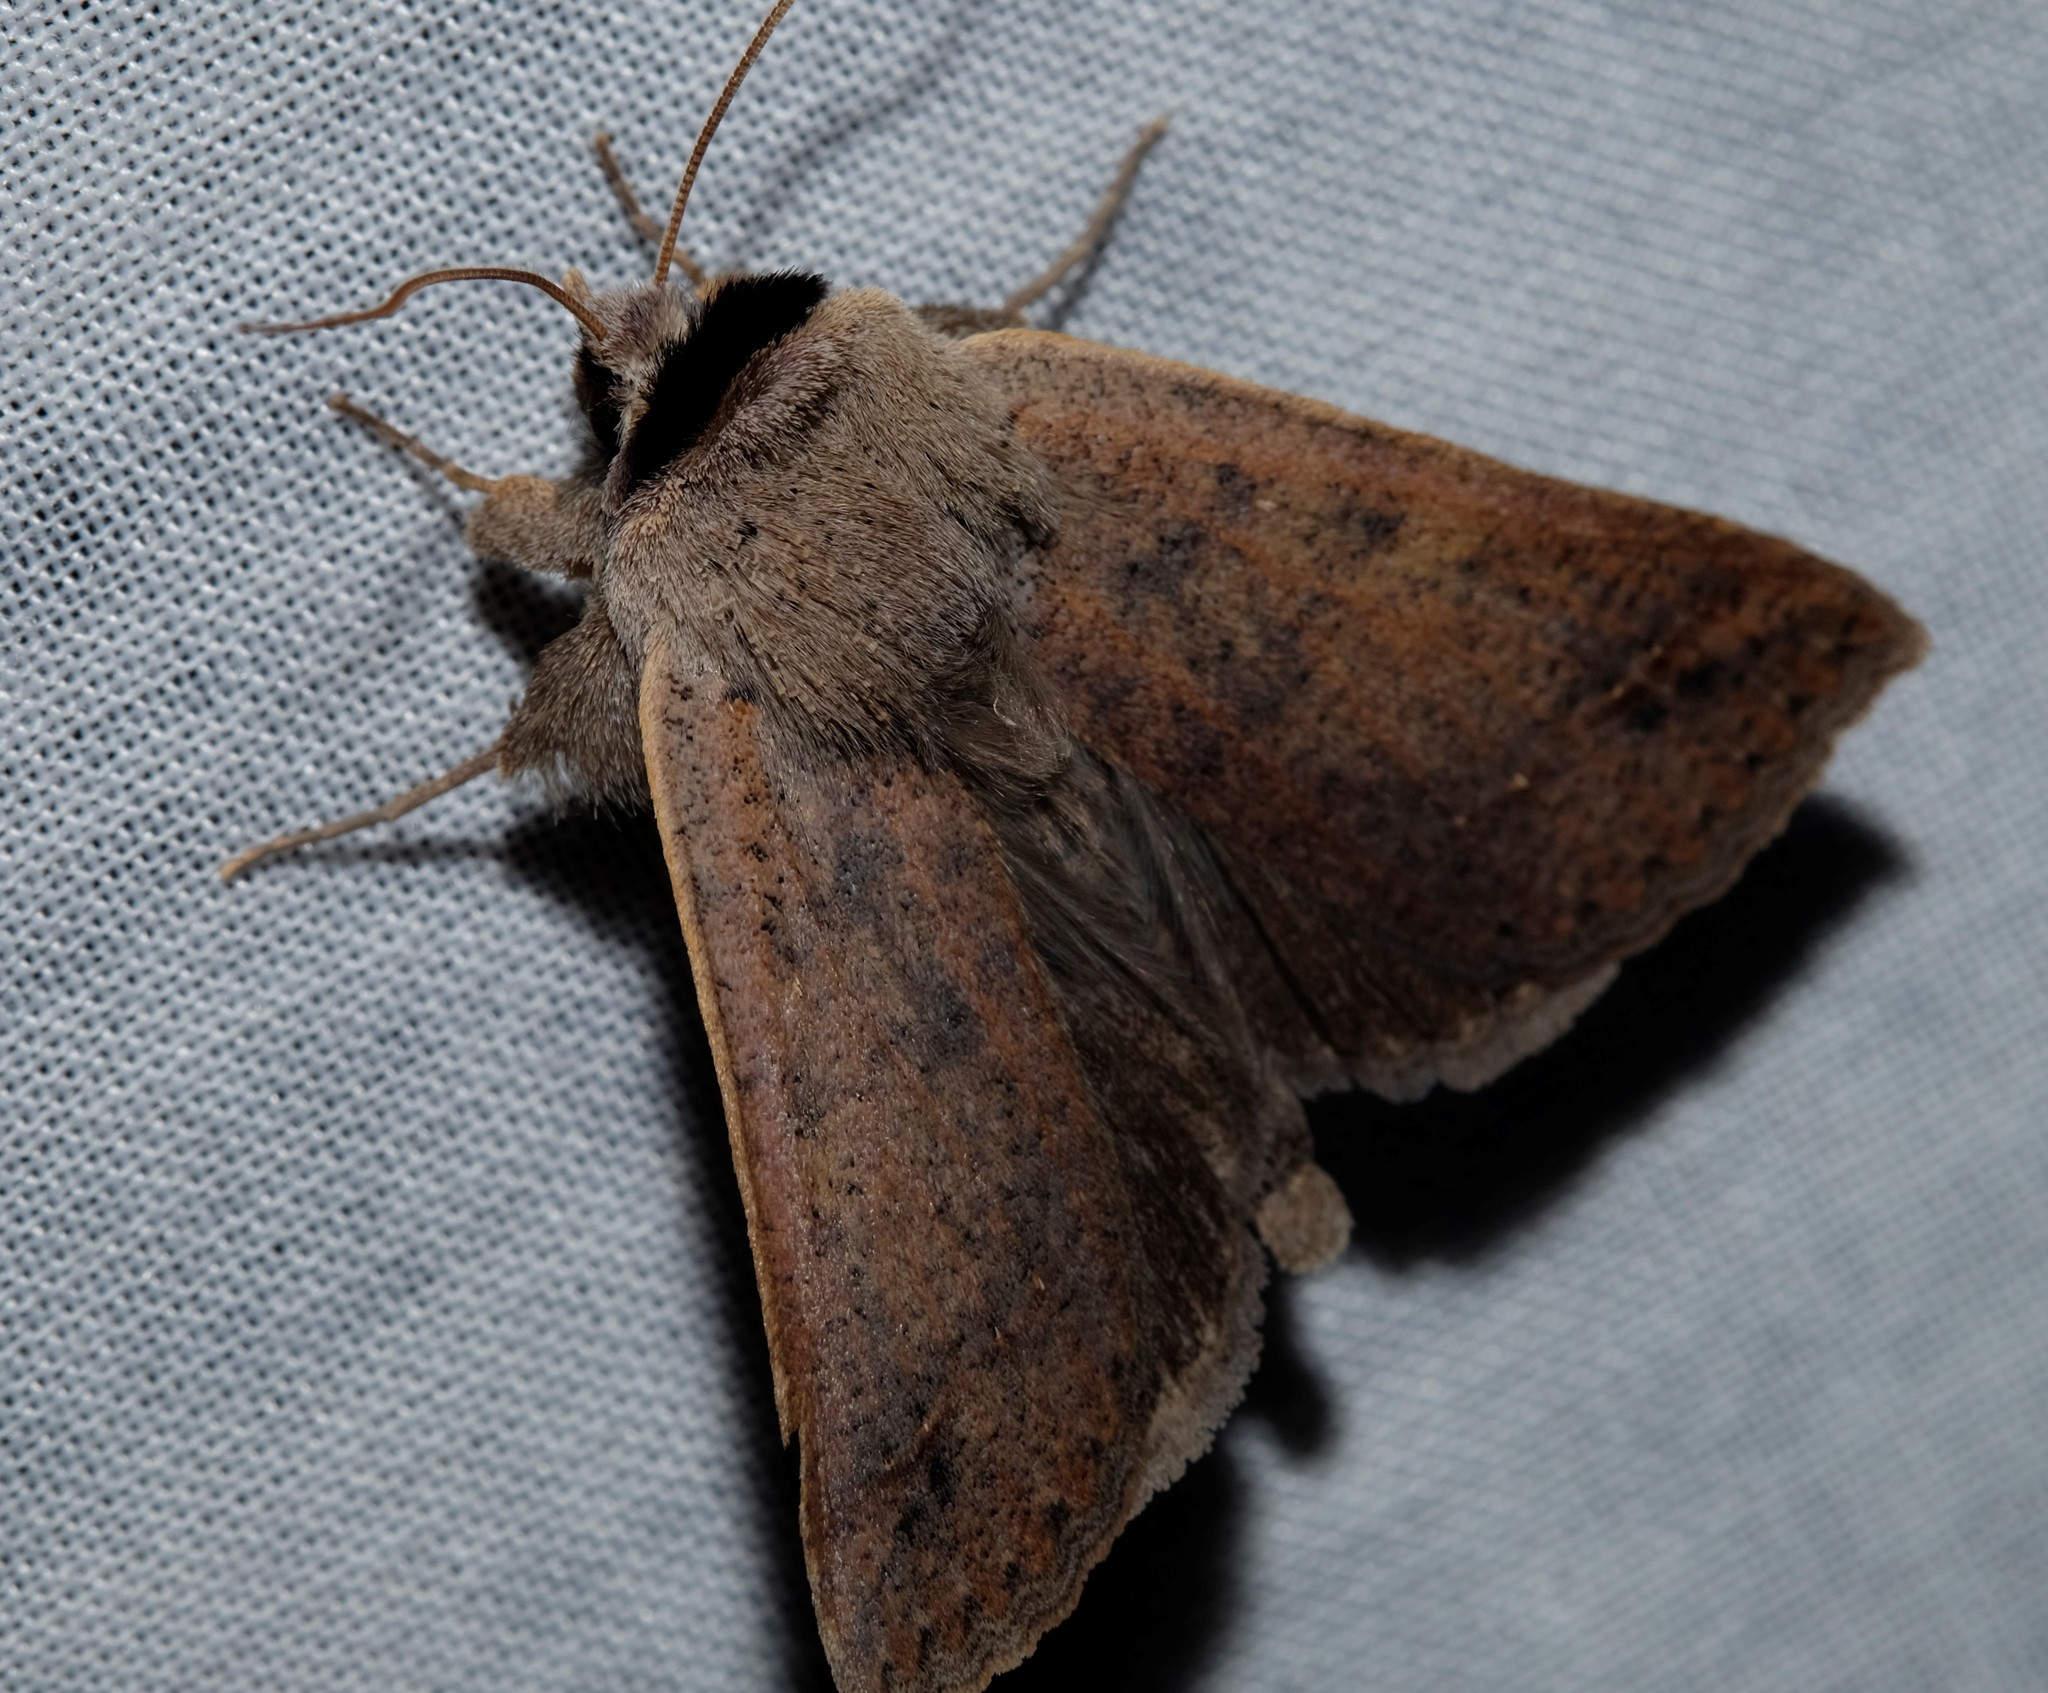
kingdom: Animalia
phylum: Arthropoda
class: Insecta
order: Lepidoptera
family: Erebidae
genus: Pantydia
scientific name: Pantydia sparsa
